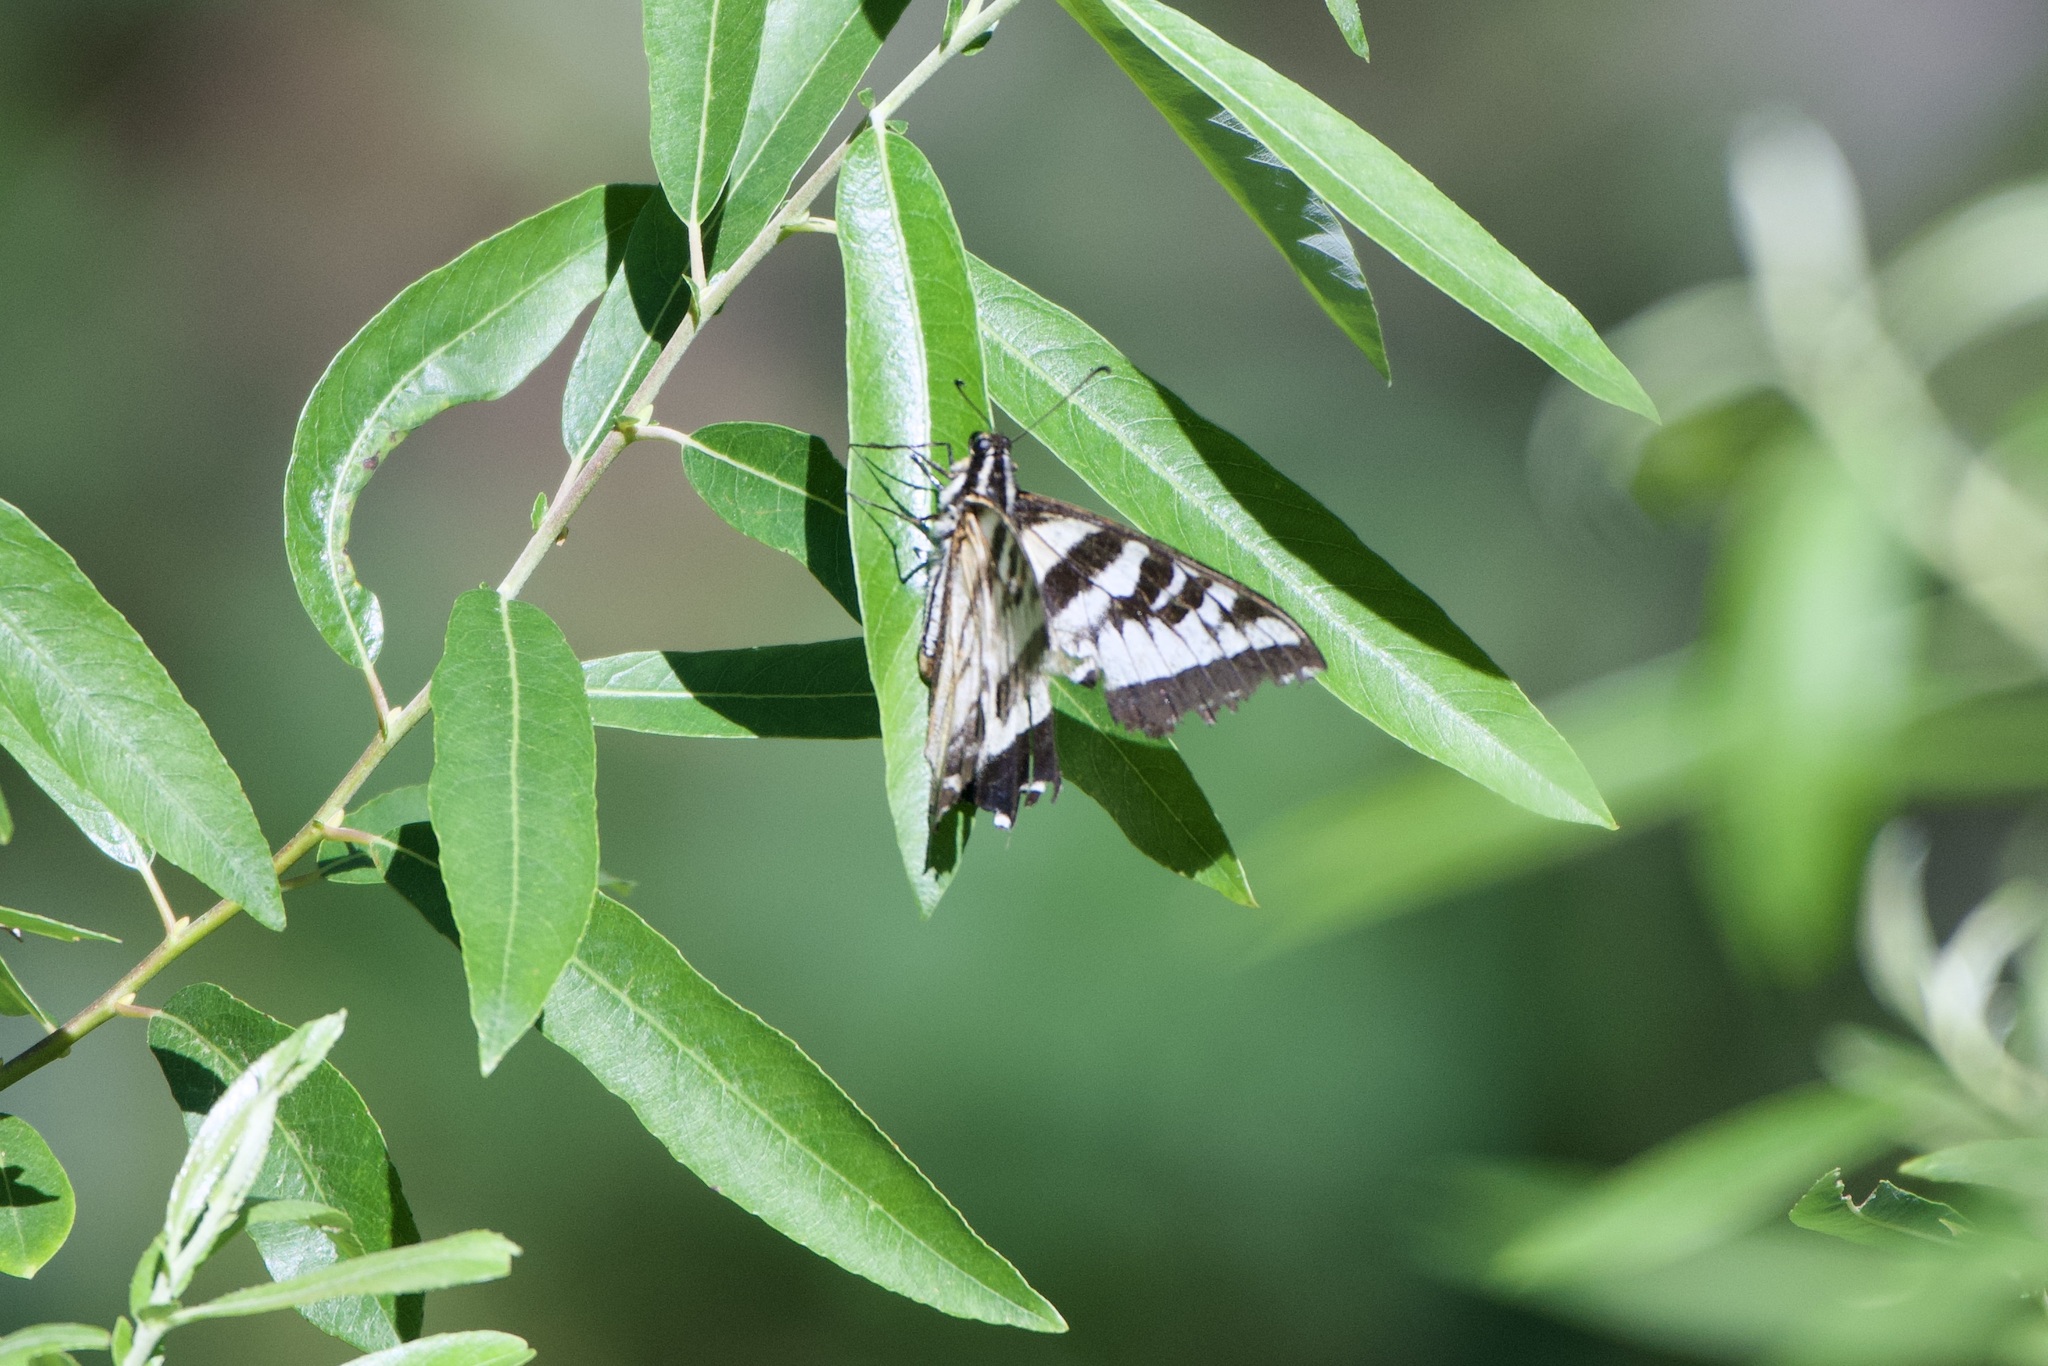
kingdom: Animalia
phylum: Arthropoda
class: Insecta
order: Lepidoptera
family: Papilionidae
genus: Papilio
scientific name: Papilio eurymedon
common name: Pale tiger swallowtail
